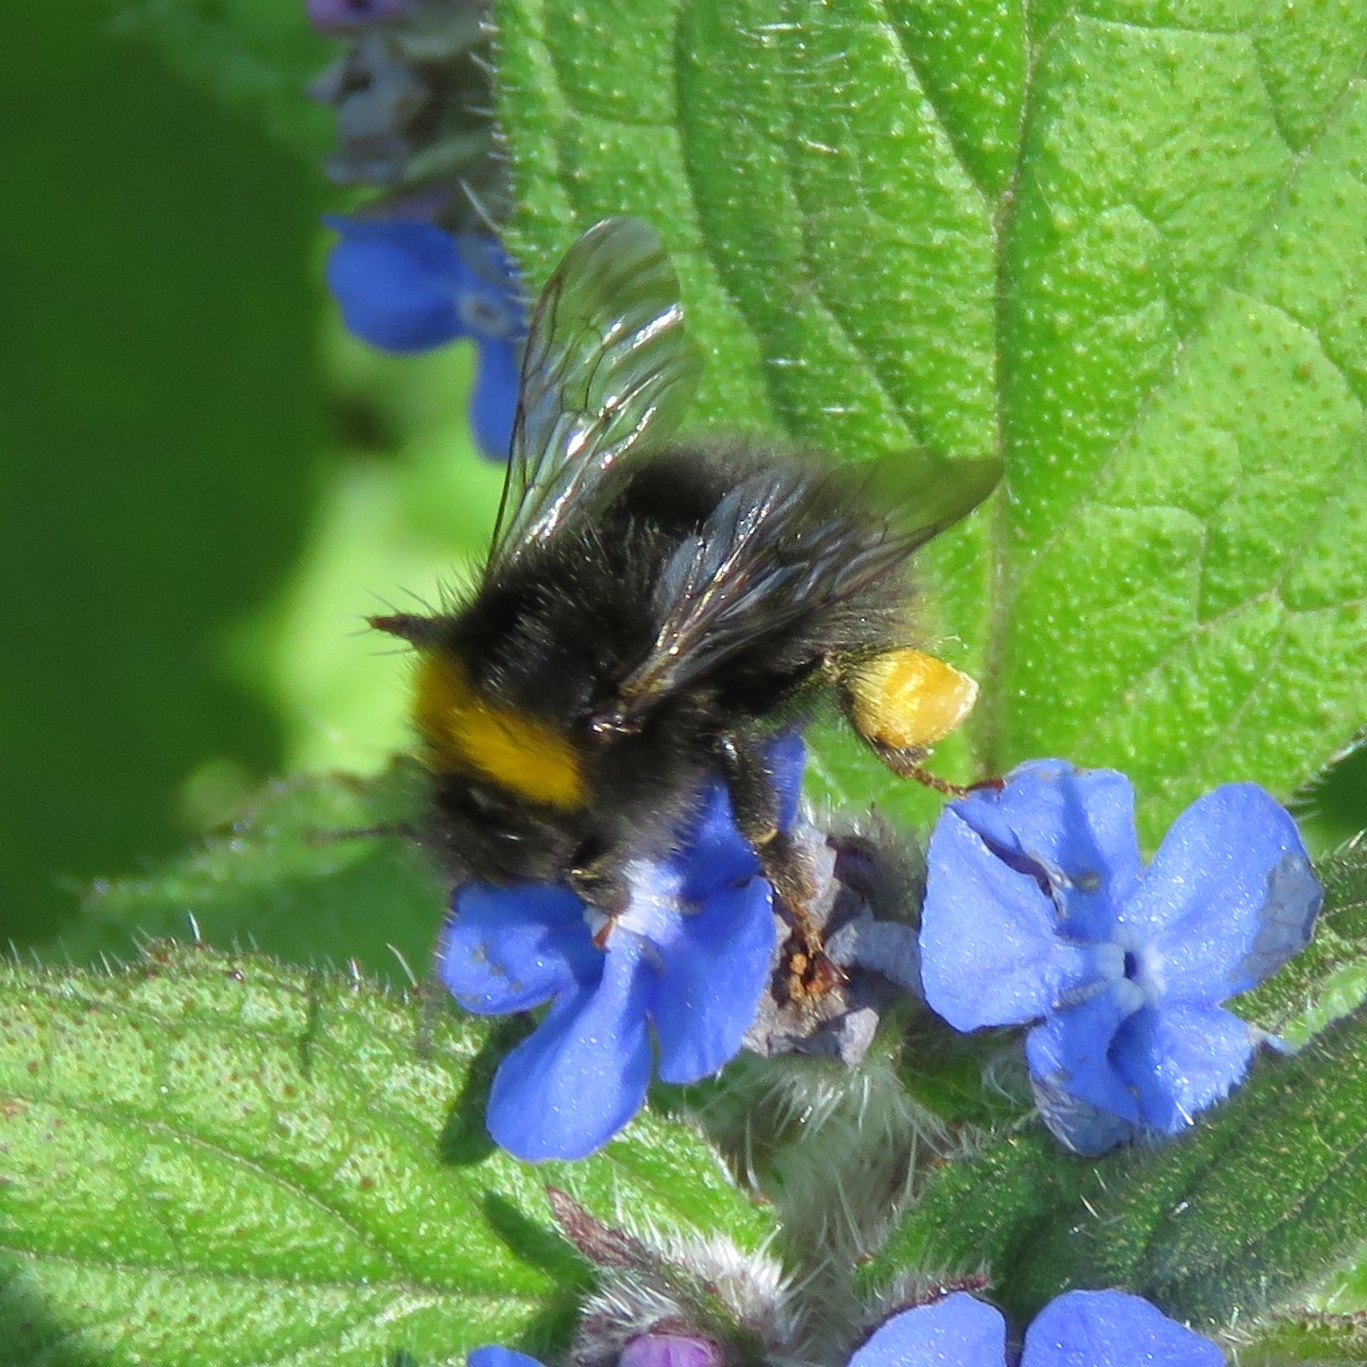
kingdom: Plantae
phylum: Tracheophyta
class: Magnoliopsida
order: Boraginales
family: Boraginaceae
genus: Pentaglottis
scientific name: Pentaglottis sempervirens
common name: Green alkanet
